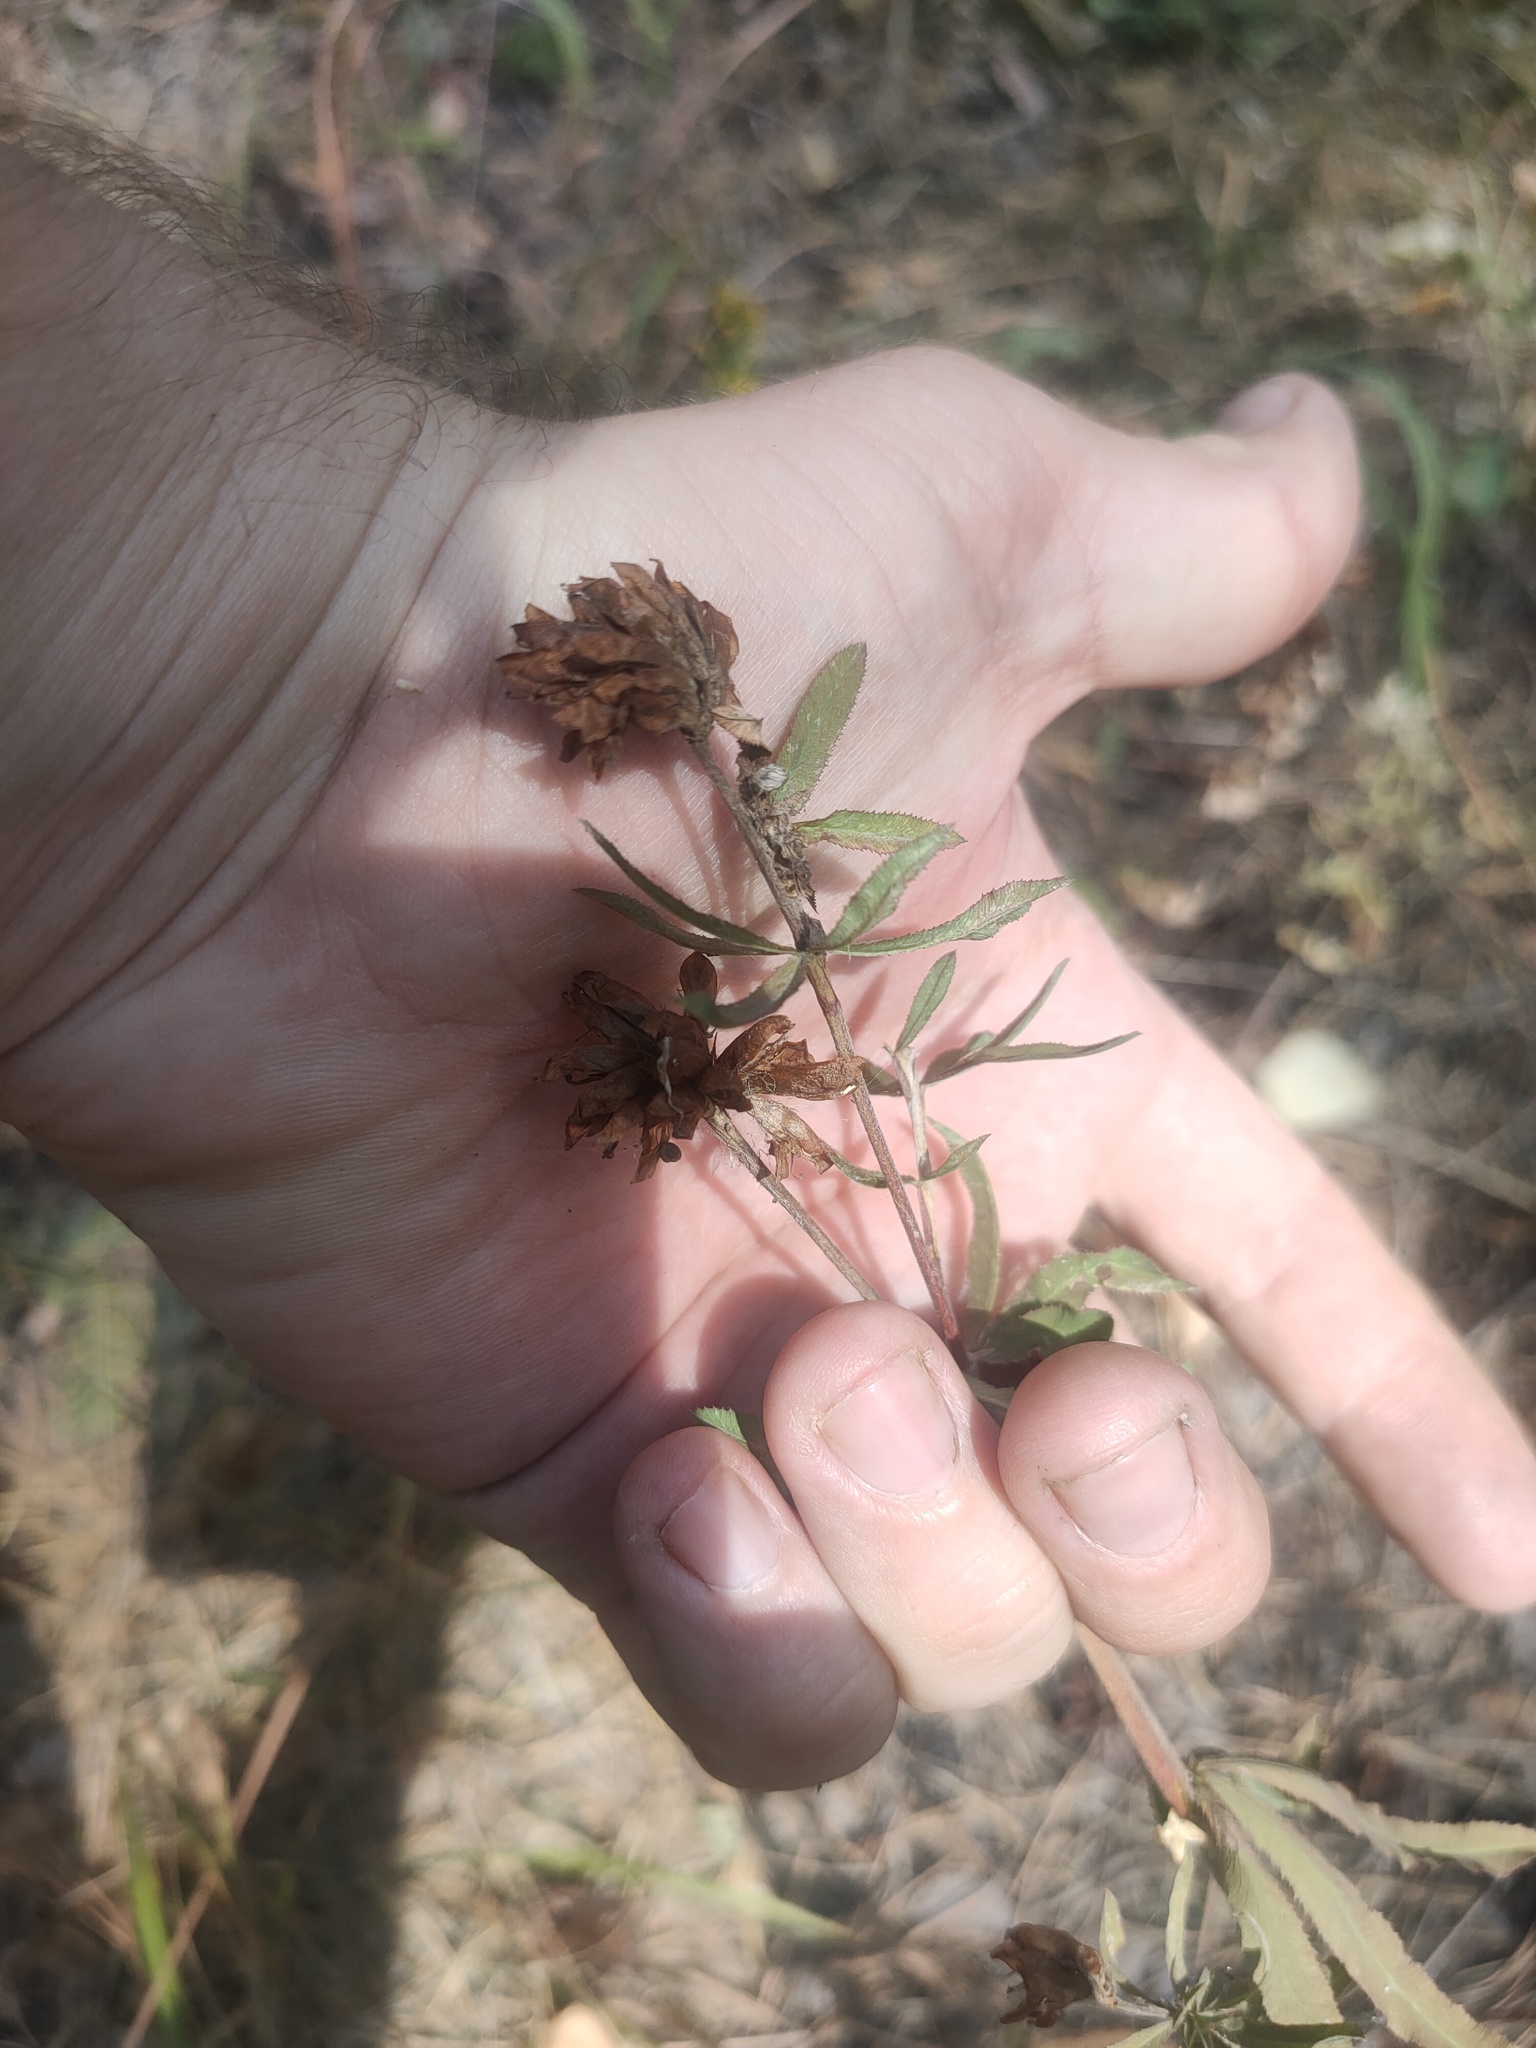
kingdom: Plantae
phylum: Tracheophyta
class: Magnoliopsida
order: Fabales
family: Fabaceae
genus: Trifolium
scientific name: Trifolium lupinaster
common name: Lupine clover
